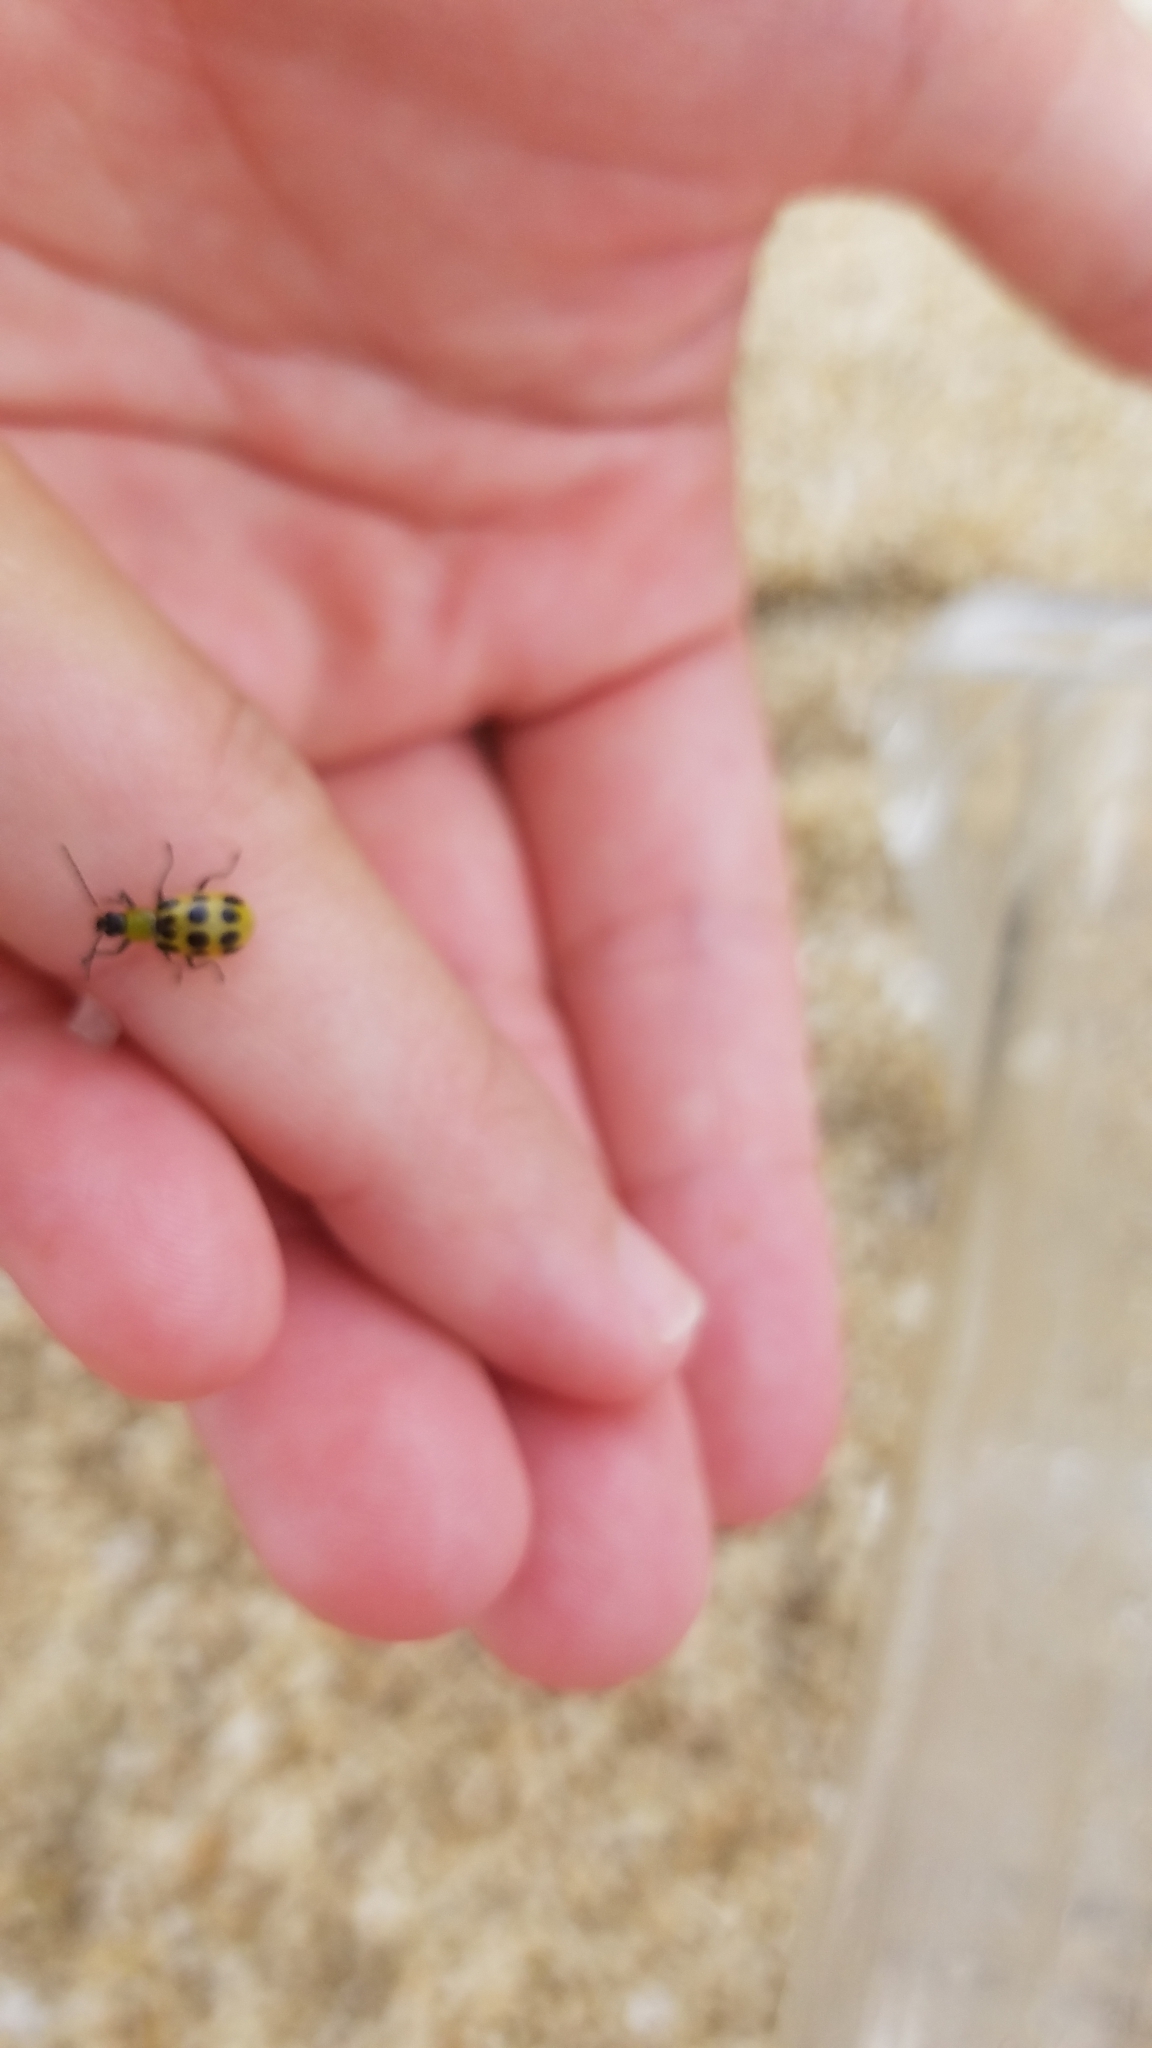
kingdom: Animalia
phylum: Arthropoda
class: Insecta
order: Coleoptera
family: Chrysomelidae
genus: Diabrotica
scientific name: Diabrotica undecimpunctata
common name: Spotted cucumber beetle
